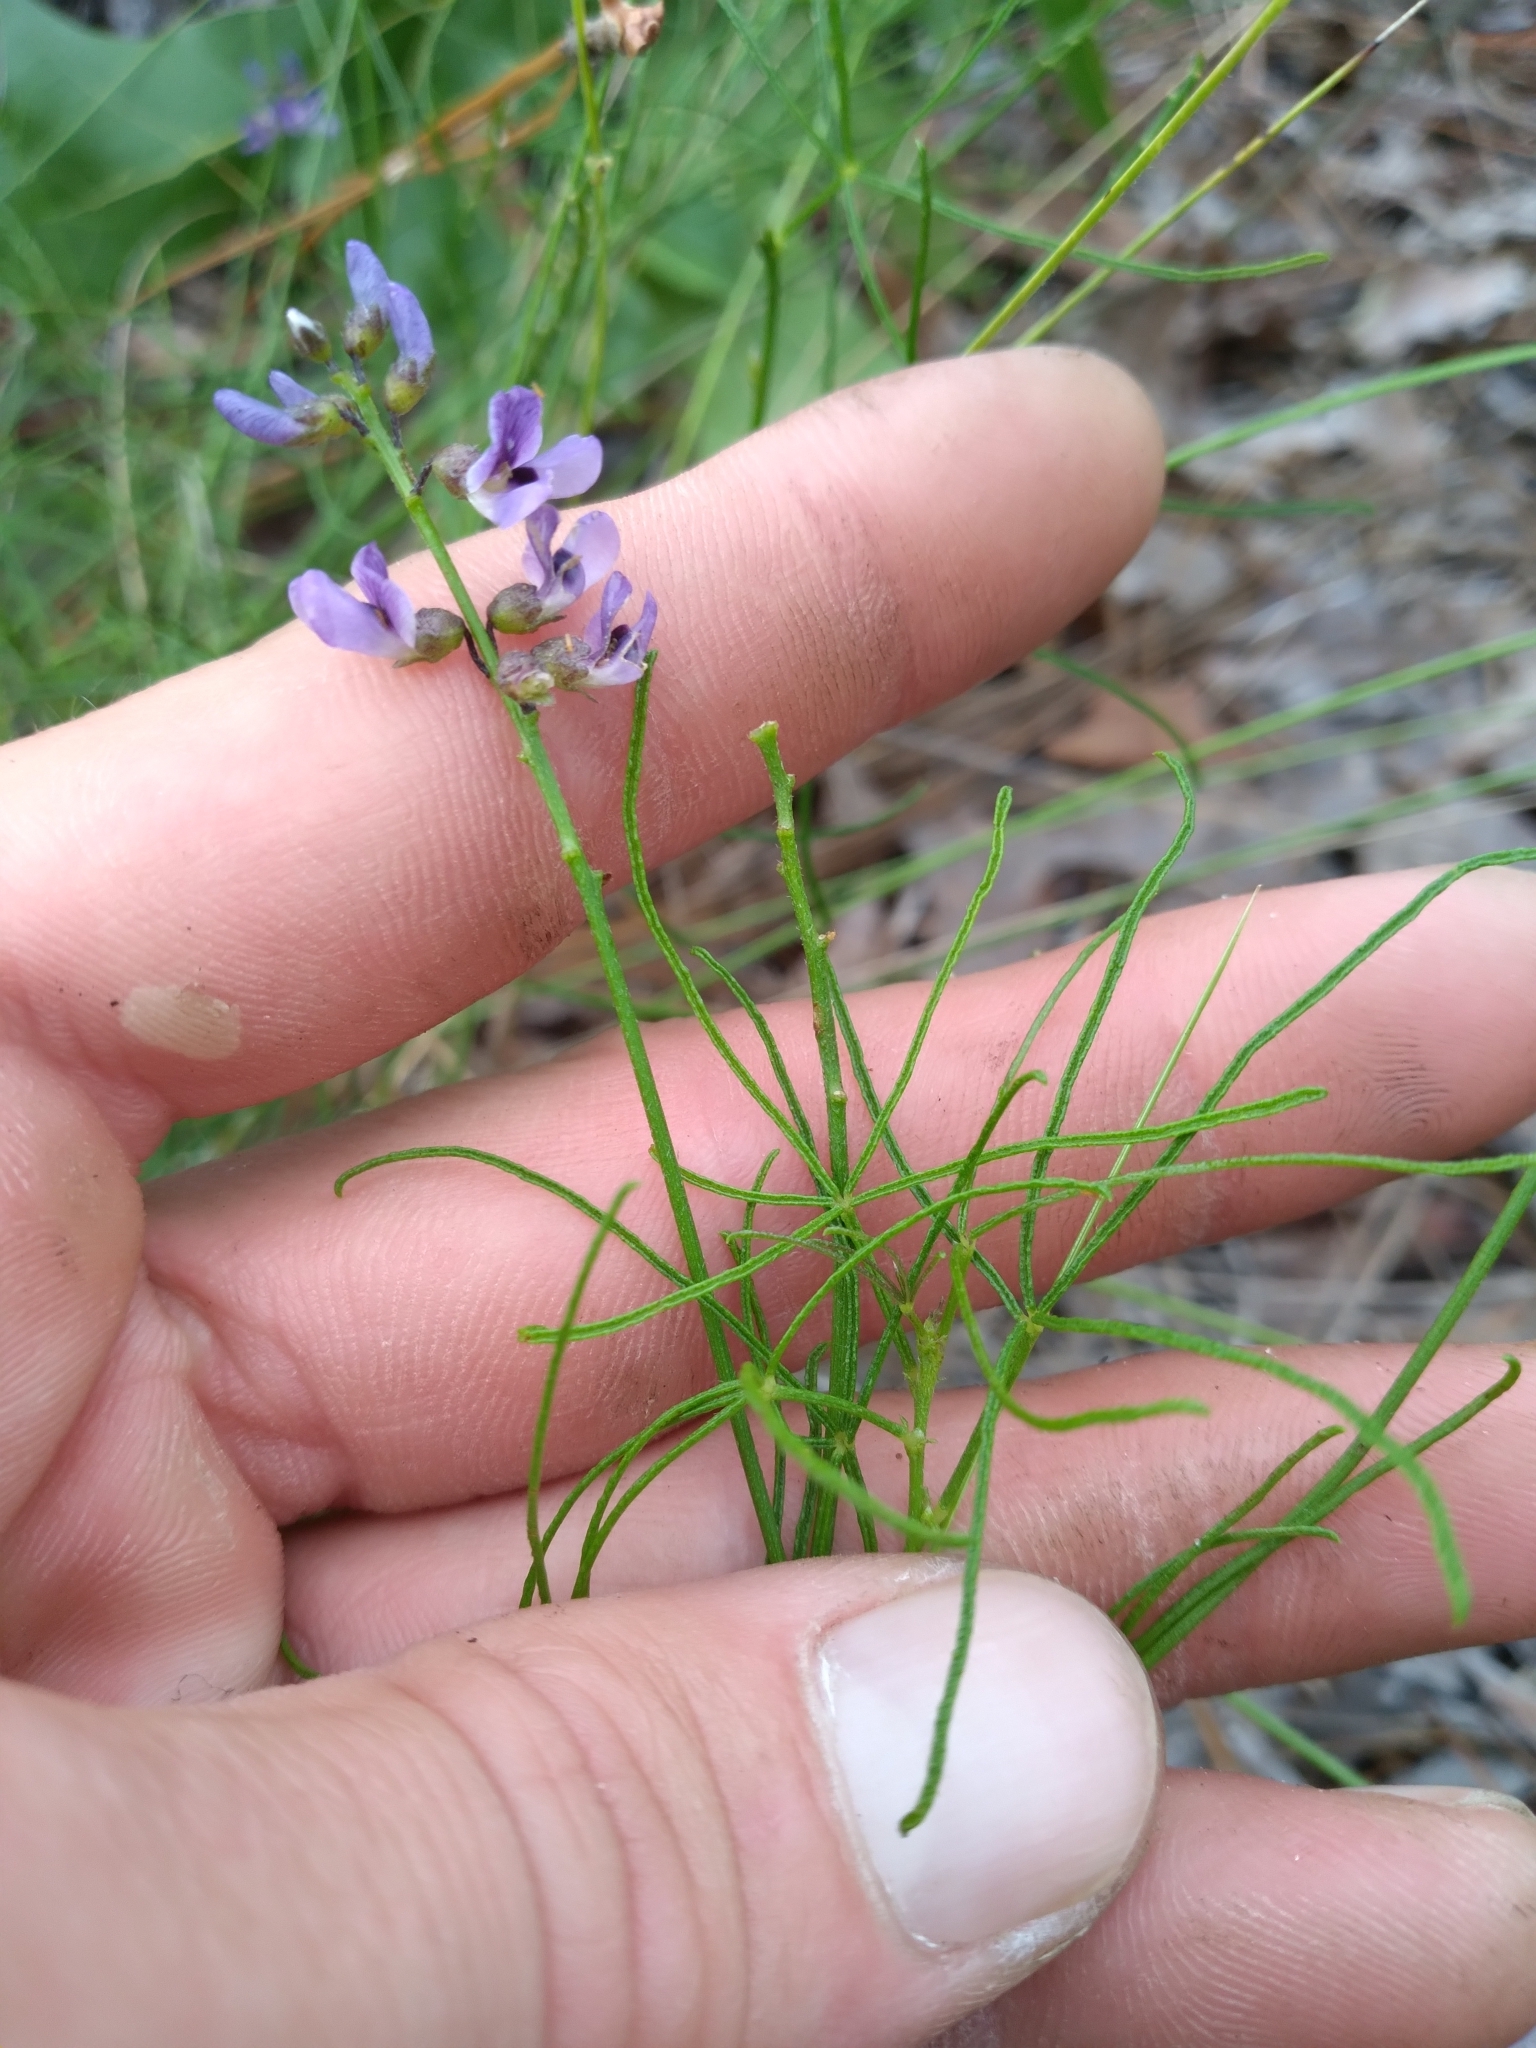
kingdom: Plantae
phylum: Tracheophyta
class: Magnoliopsida
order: Fabales
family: Fabaceae
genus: Orbexilum
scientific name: Orbexilum lupinellus
